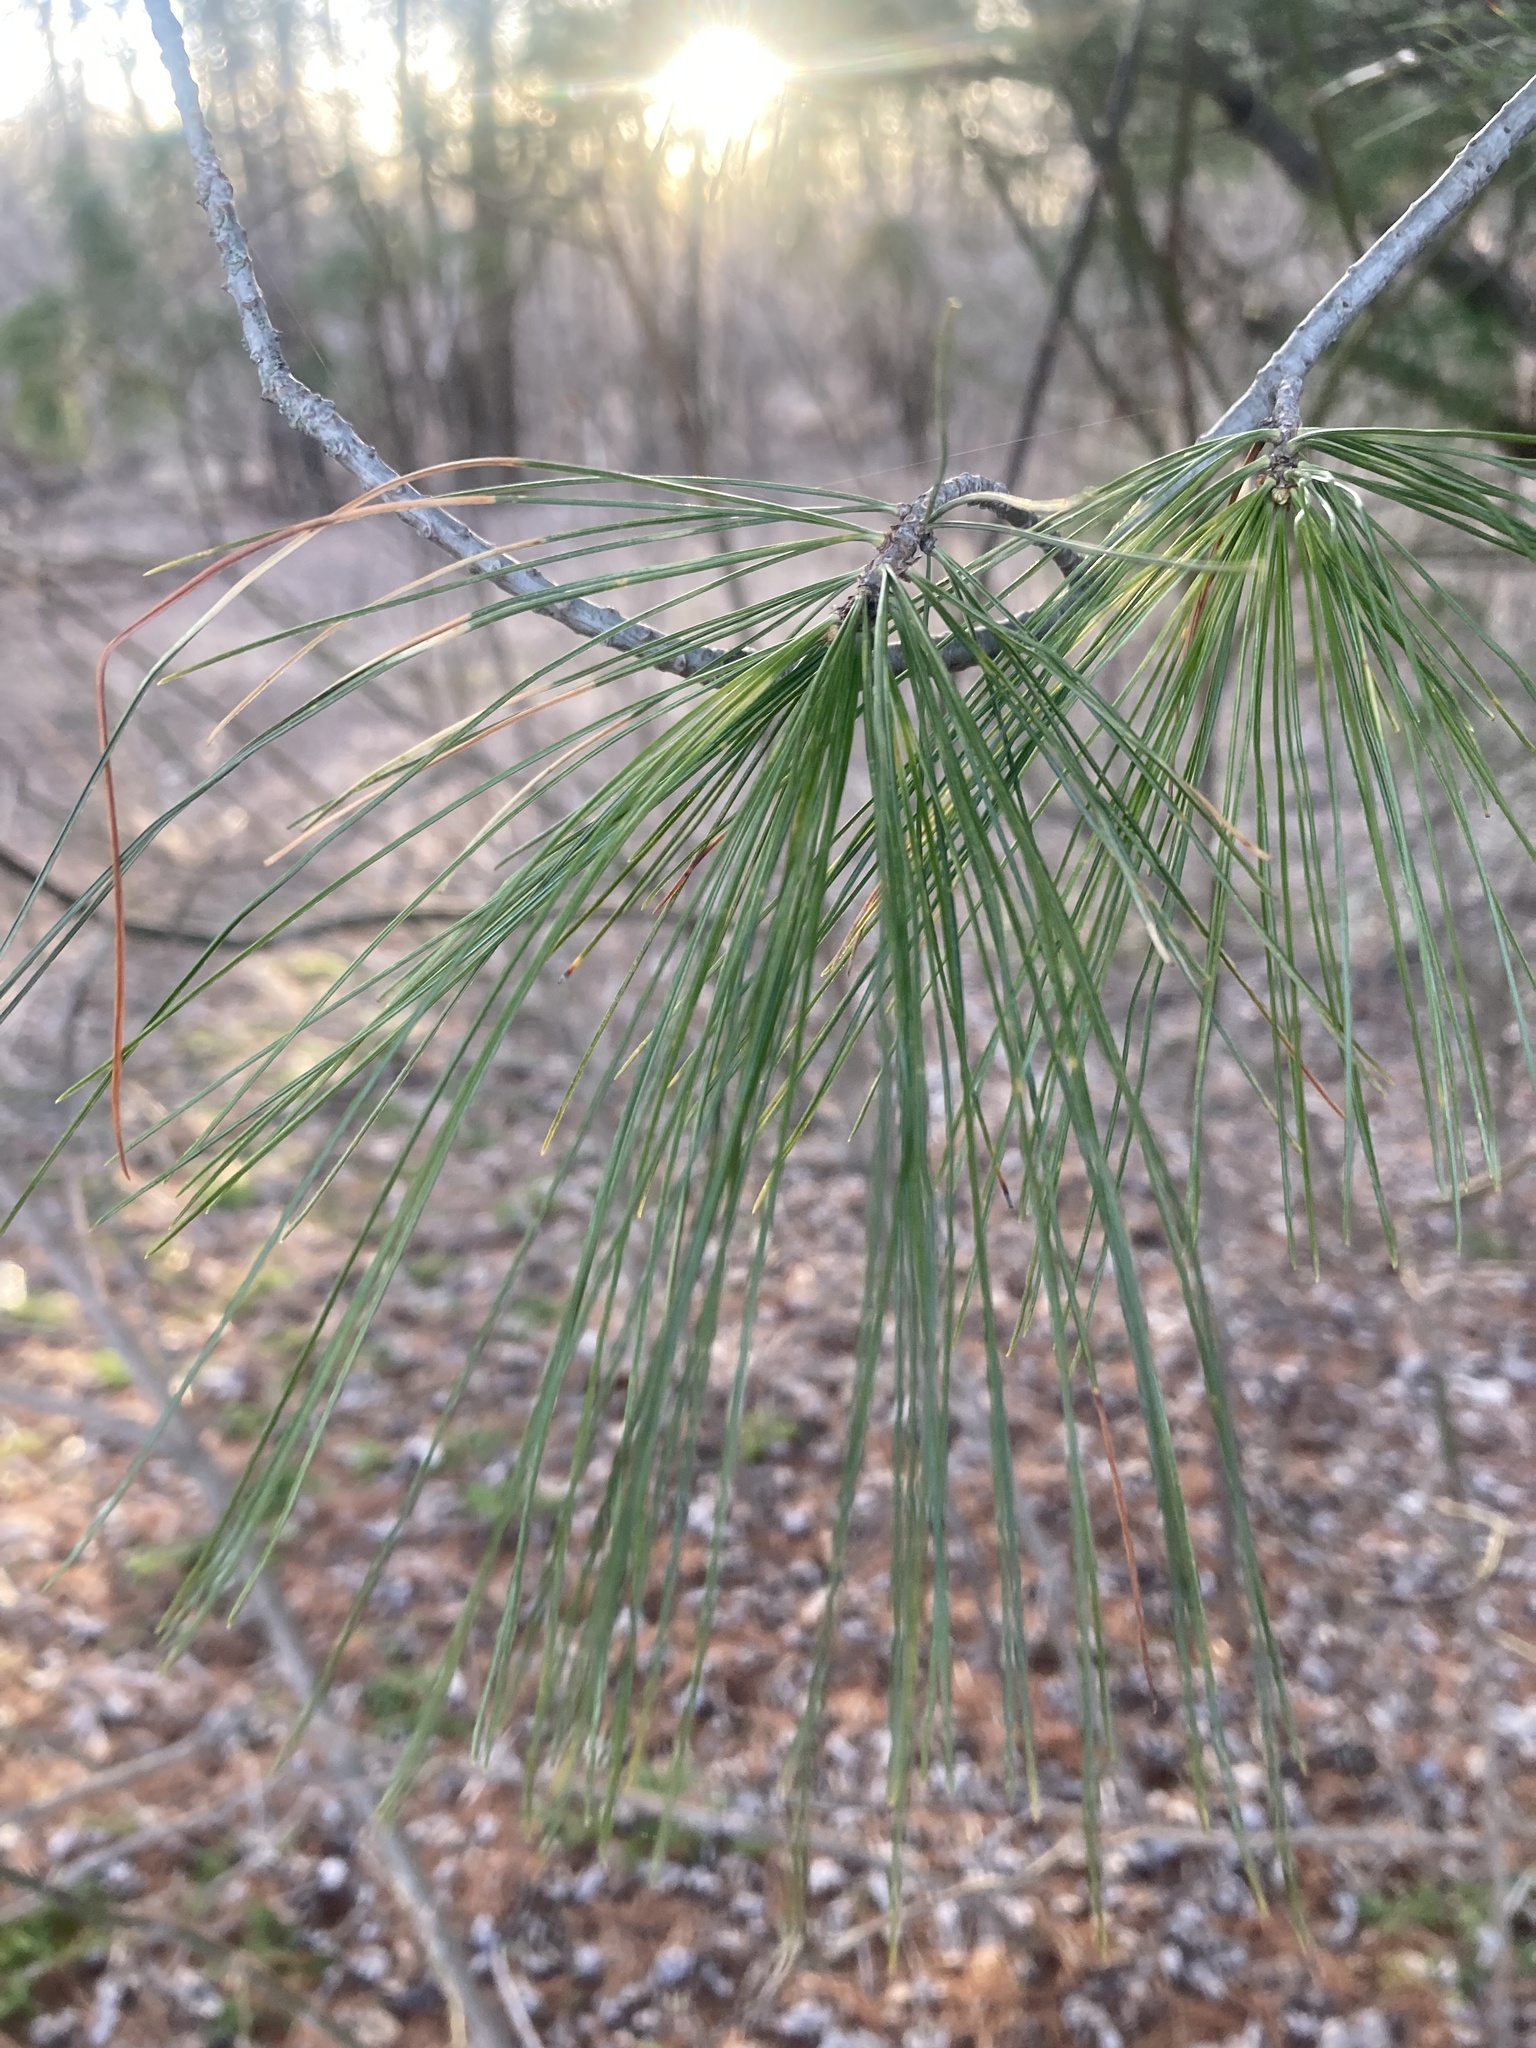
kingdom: Plantae
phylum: Tracheophyta
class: Pinopsida
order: Pinales
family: Pinaceae
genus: Pinus
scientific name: Pinus strobus
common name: Weymouth pine
